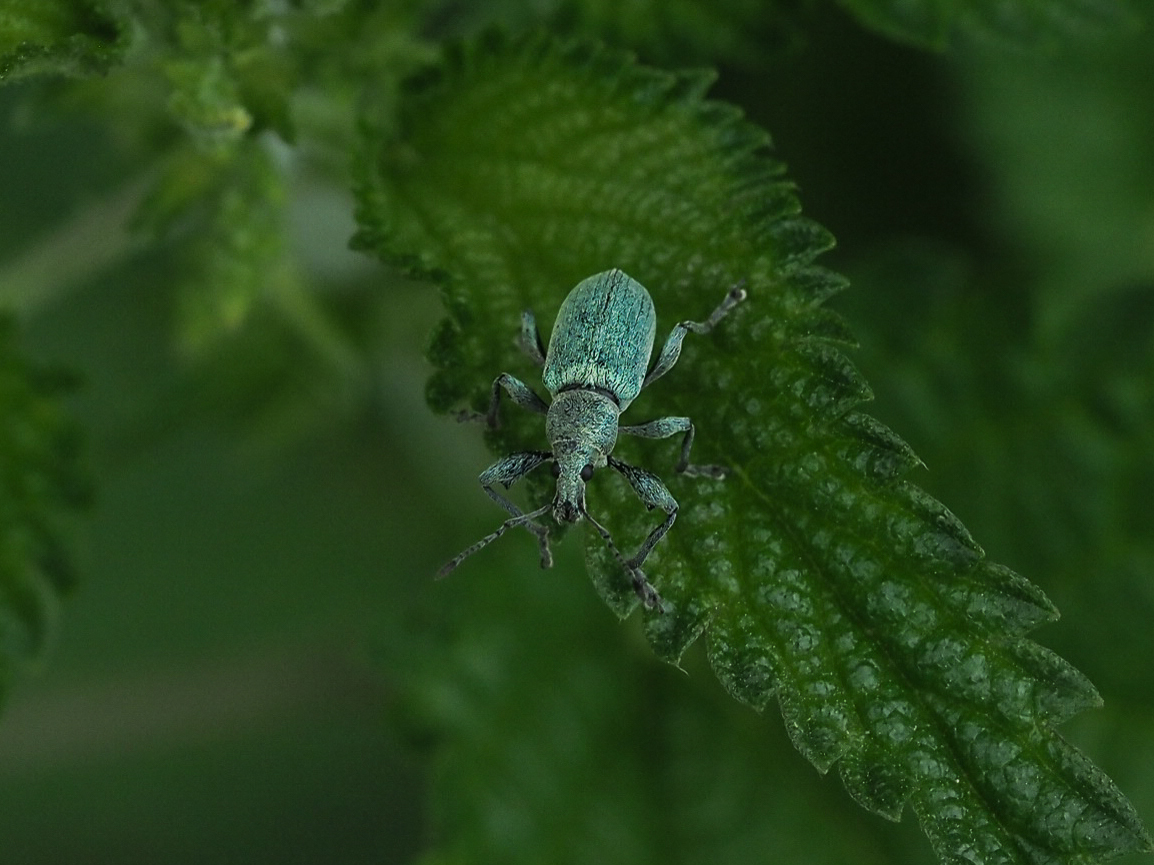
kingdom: Animalia
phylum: Arthropoda
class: Insecta
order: Coleoptera
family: Curculionidae
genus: Phyllobius
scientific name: Phyllobius pomaceus
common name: Green nettle weevil
